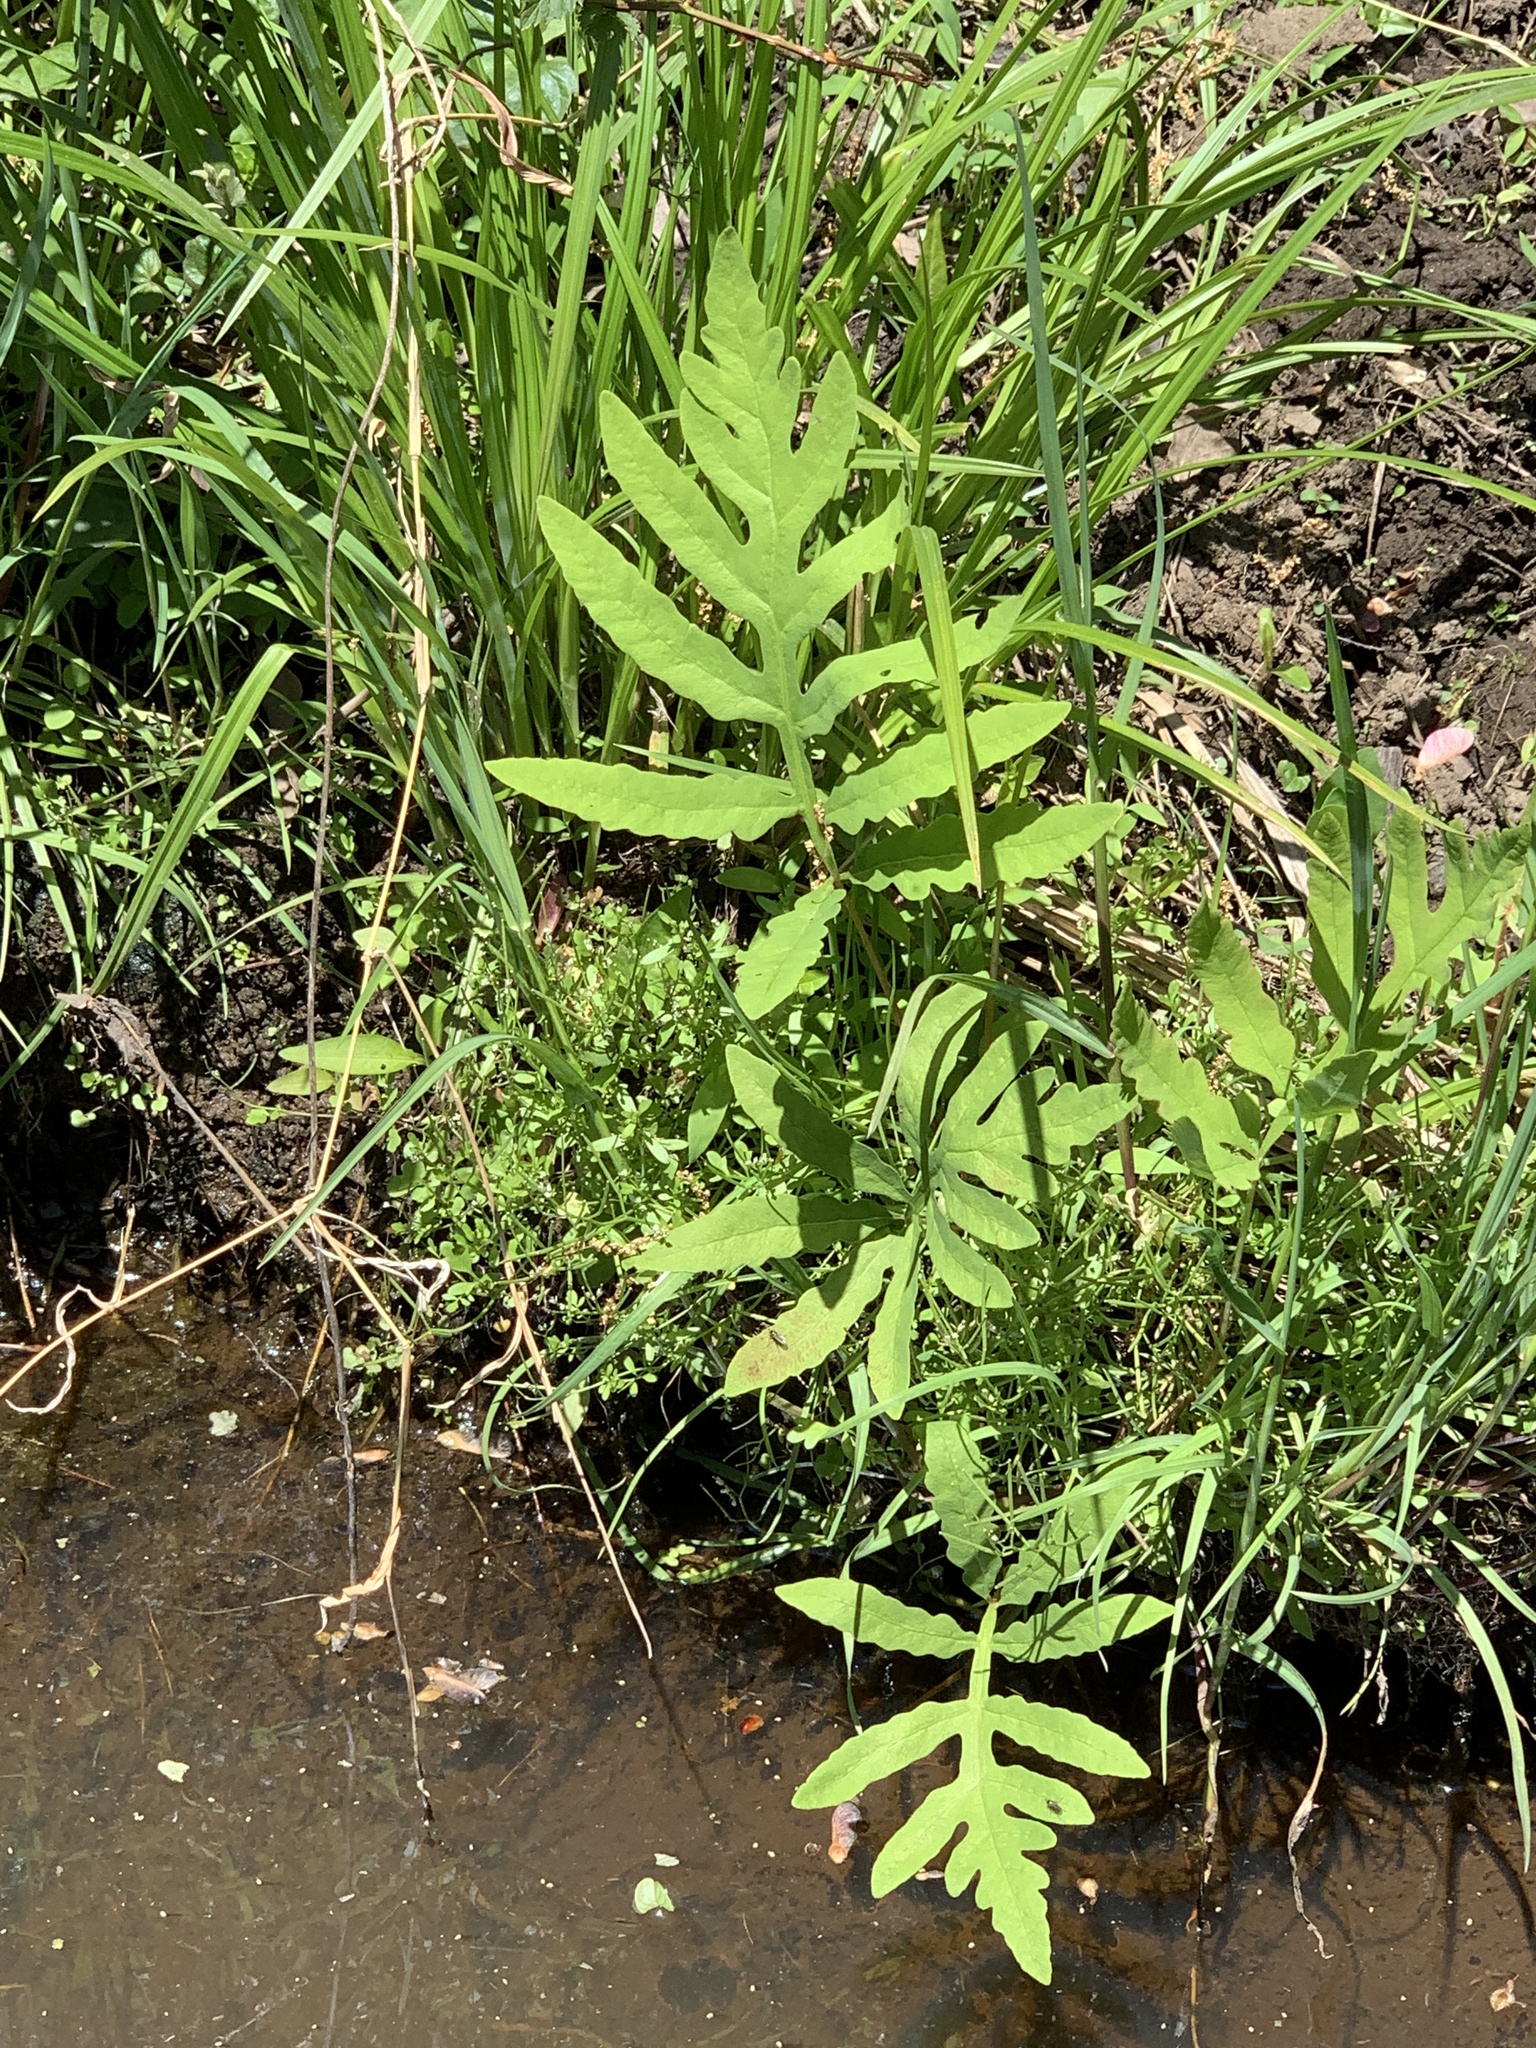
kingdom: Plantae
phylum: Tracheophyta
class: Polypodiopsida
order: Polypodiales
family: Onocleaceae
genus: Onoclea
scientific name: Onoclea sensibilis
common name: Sensitive fern
